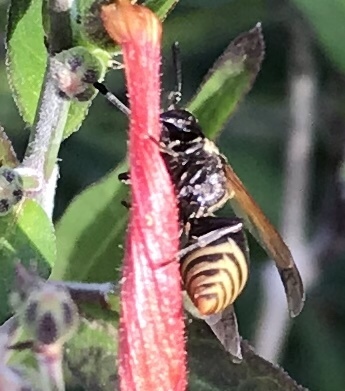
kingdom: Animalia
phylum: Arthropoda
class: Insecta
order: Hymenoptera
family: Vespidae
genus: Brachygastra
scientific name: Brachygastra mellifica
